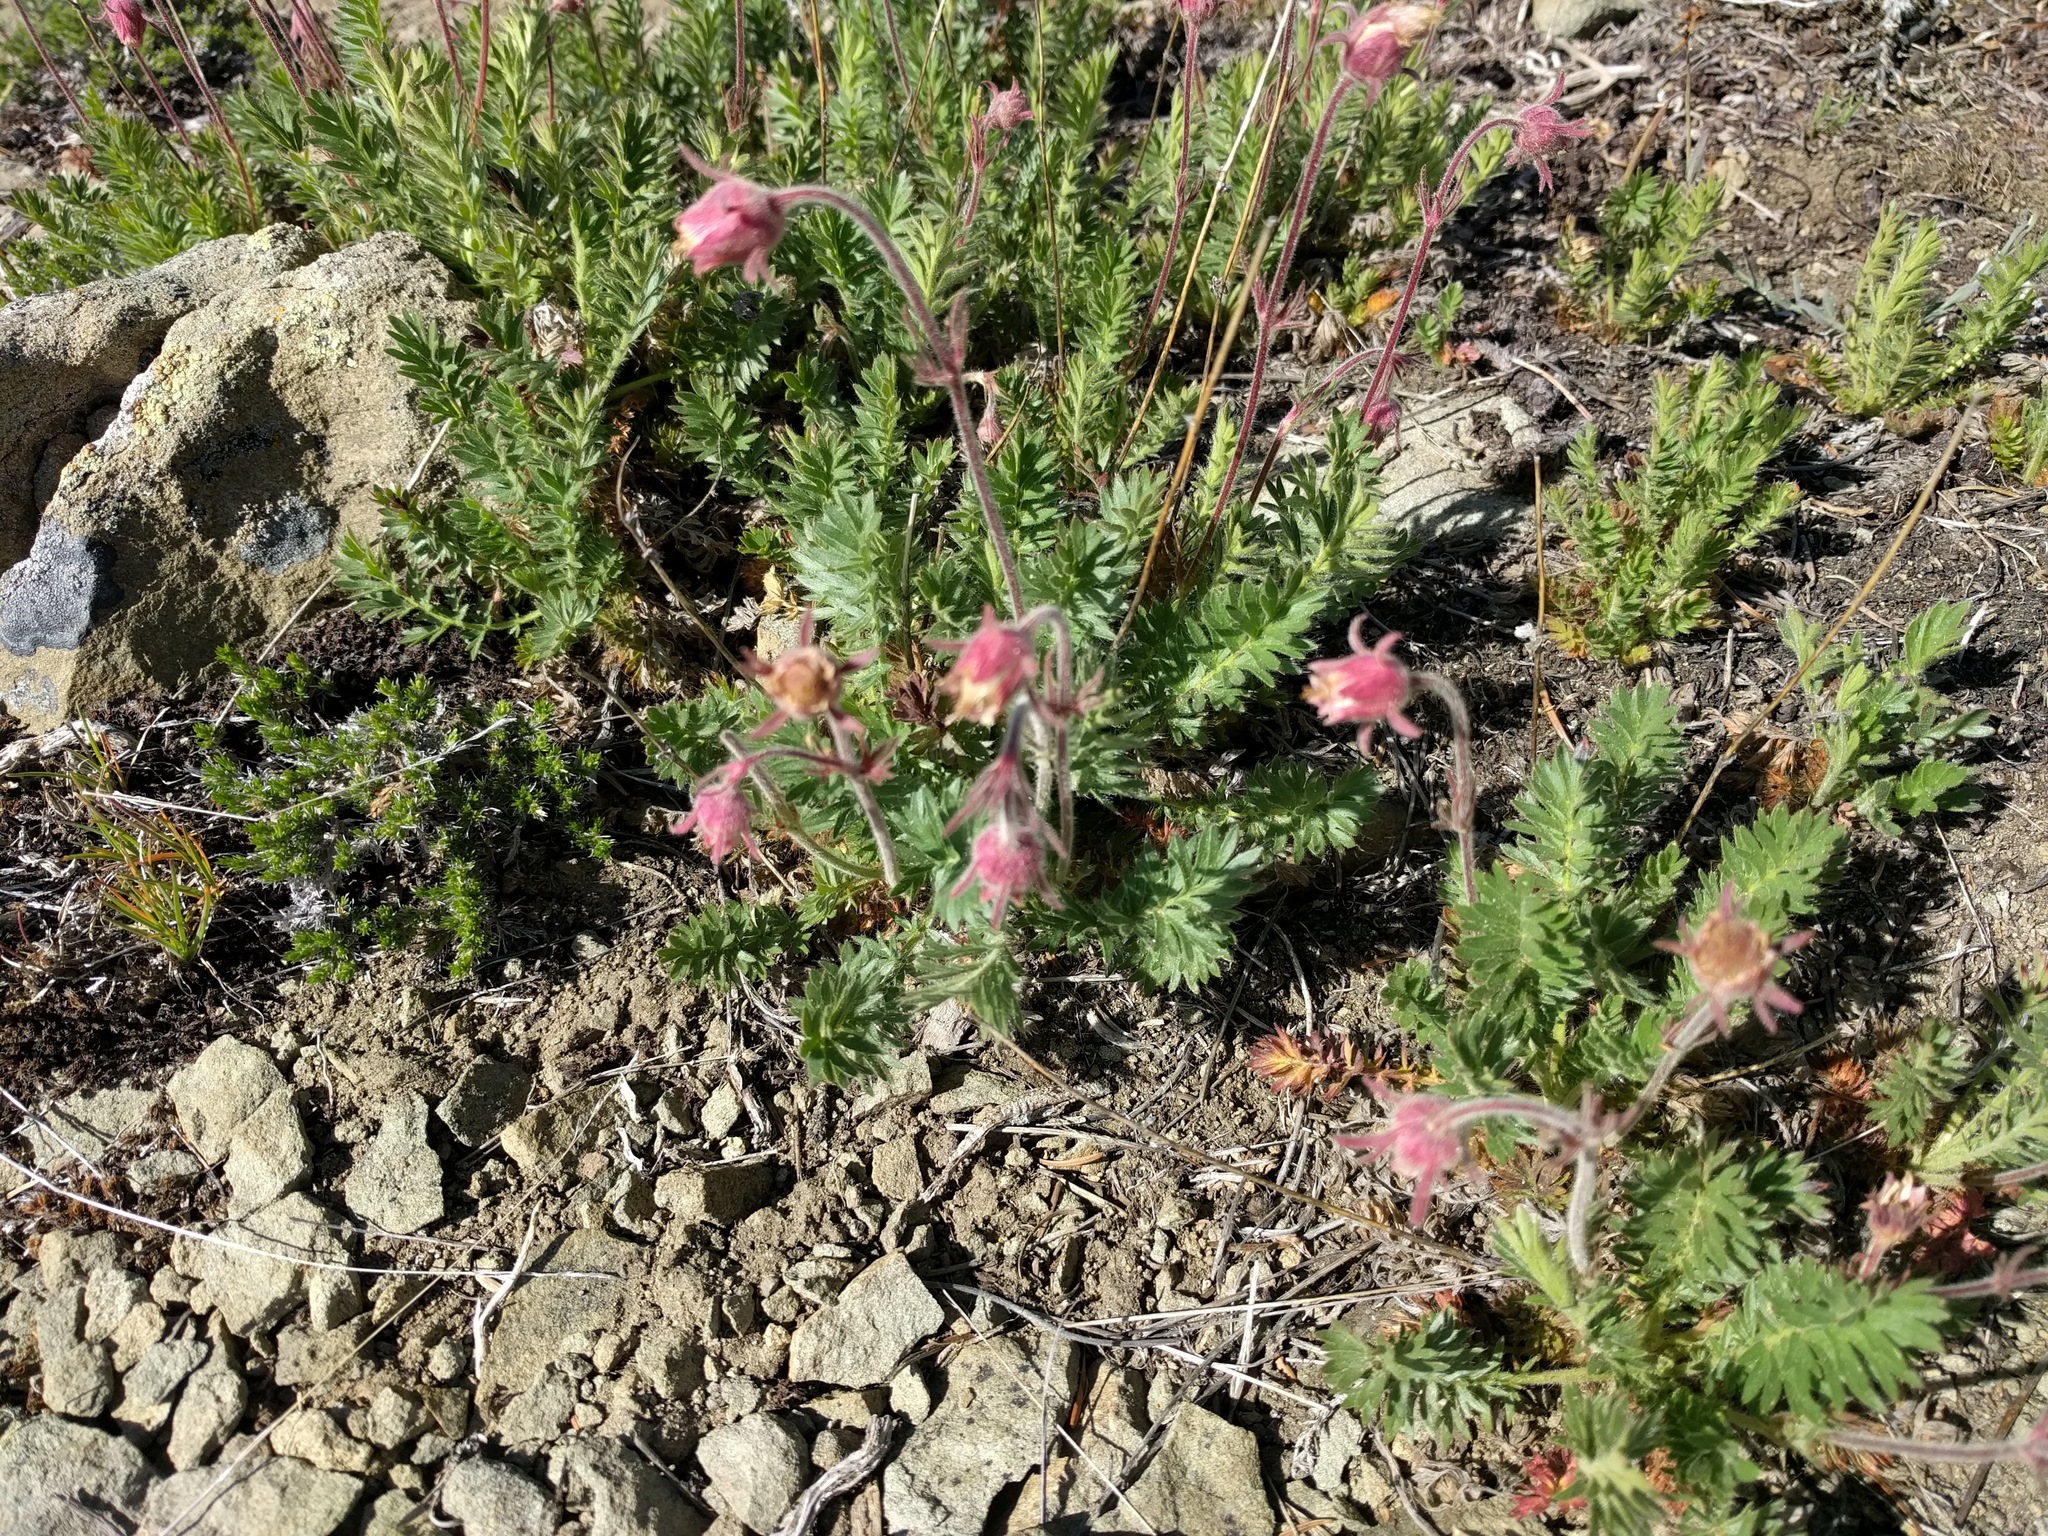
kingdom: Plantae
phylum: Tracheophyta
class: Magnoliopsida
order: Rosales
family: Rosaceae
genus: Geum
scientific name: Geum triflorum
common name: Old man's whiskers
